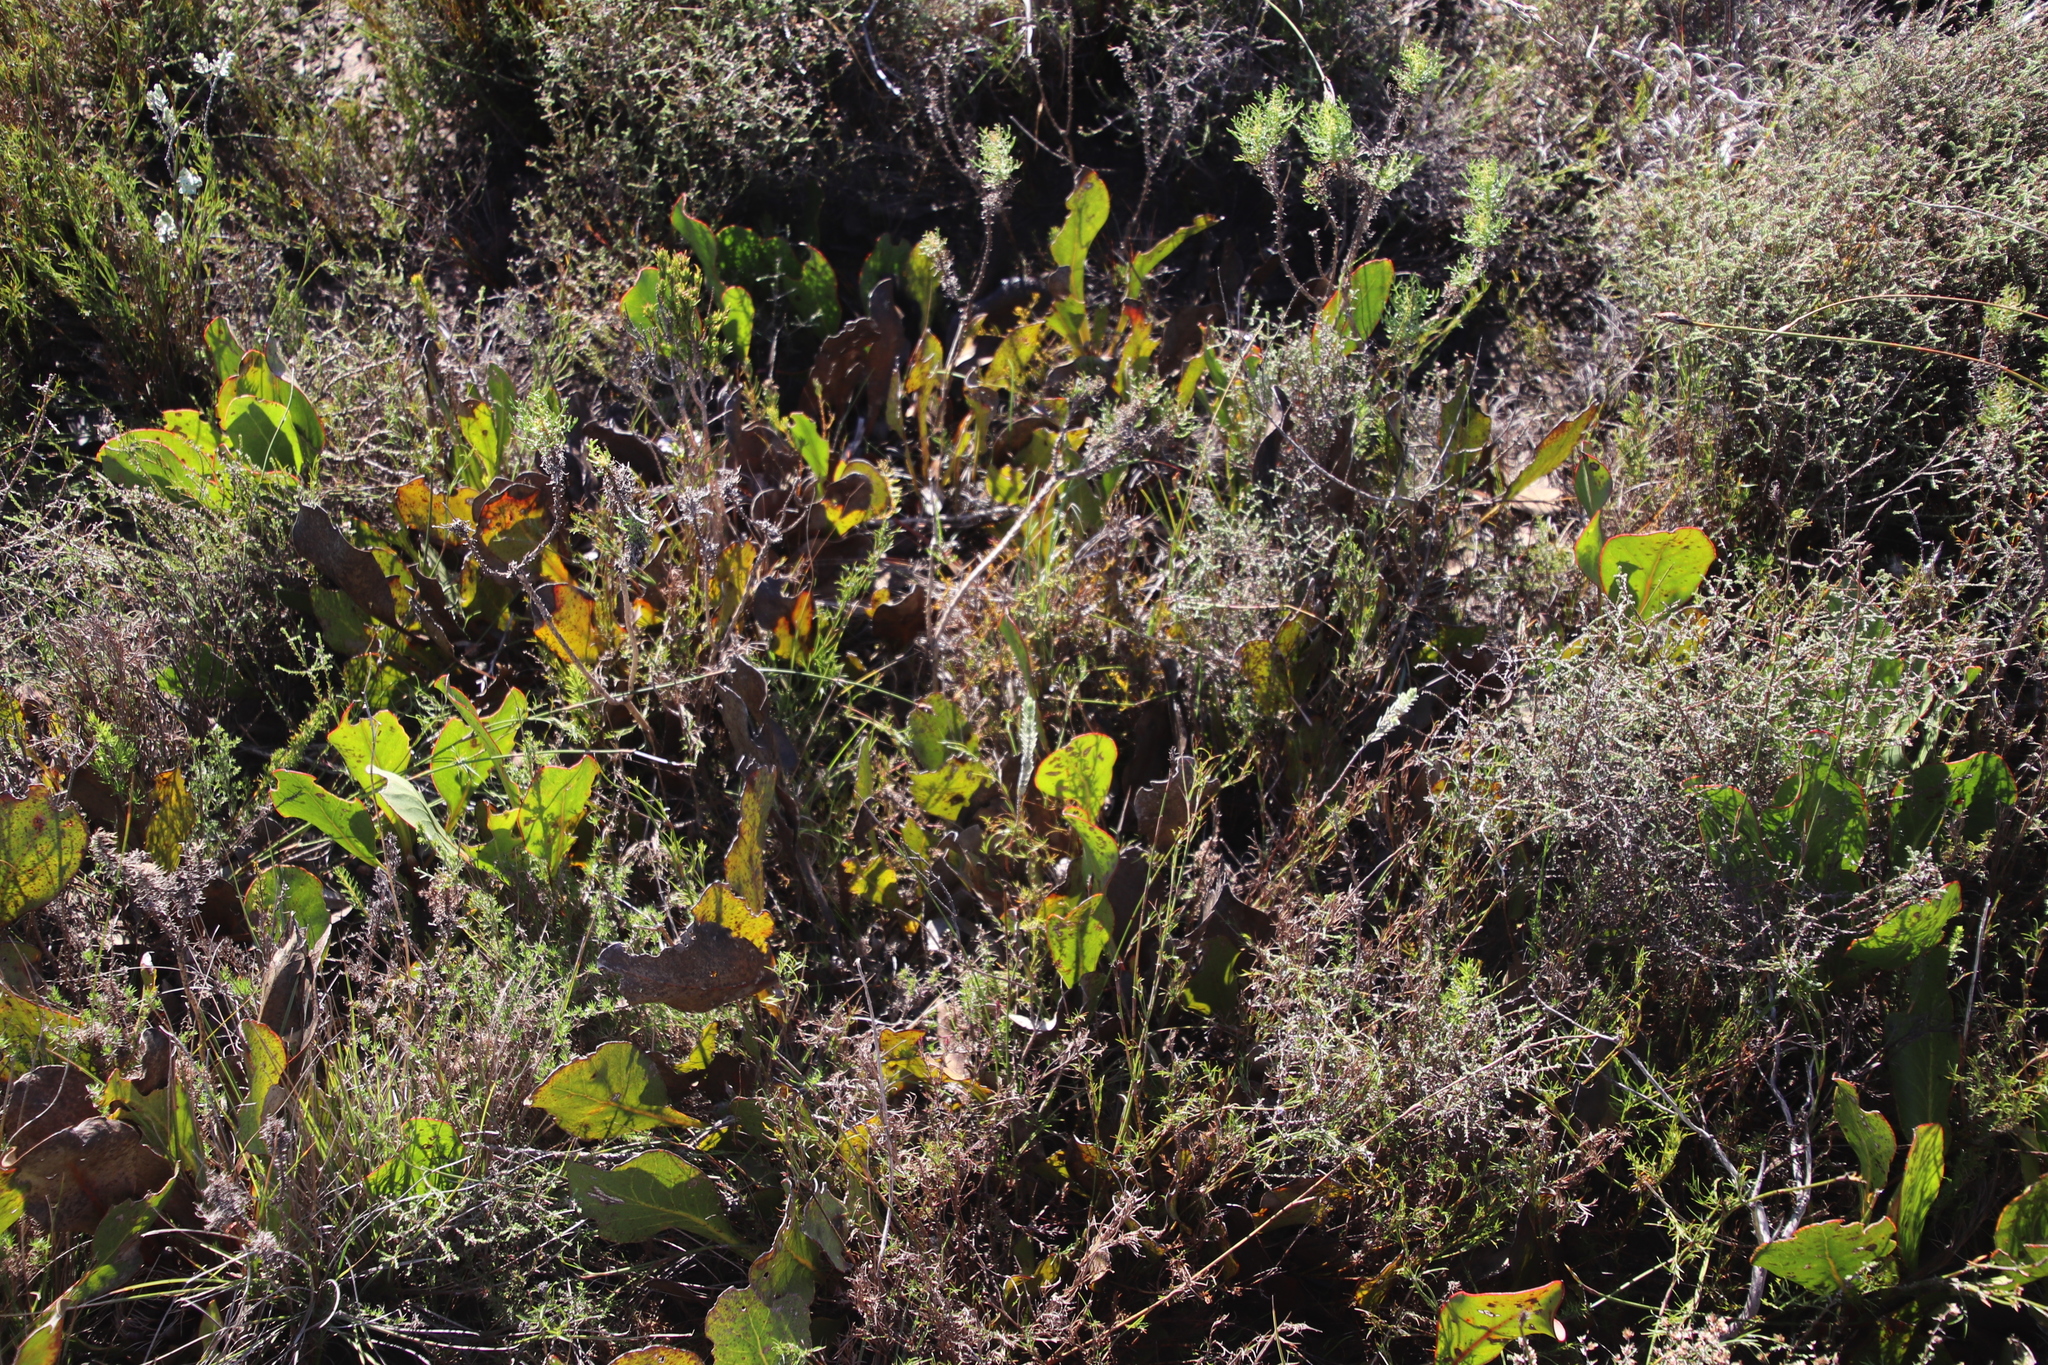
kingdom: Plantae
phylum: Tracheophyta
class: Magnoliopsida
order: Proteales
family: Proteaceae
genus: Protea
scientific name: Protea acaulos
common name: Common ground sugarbush
